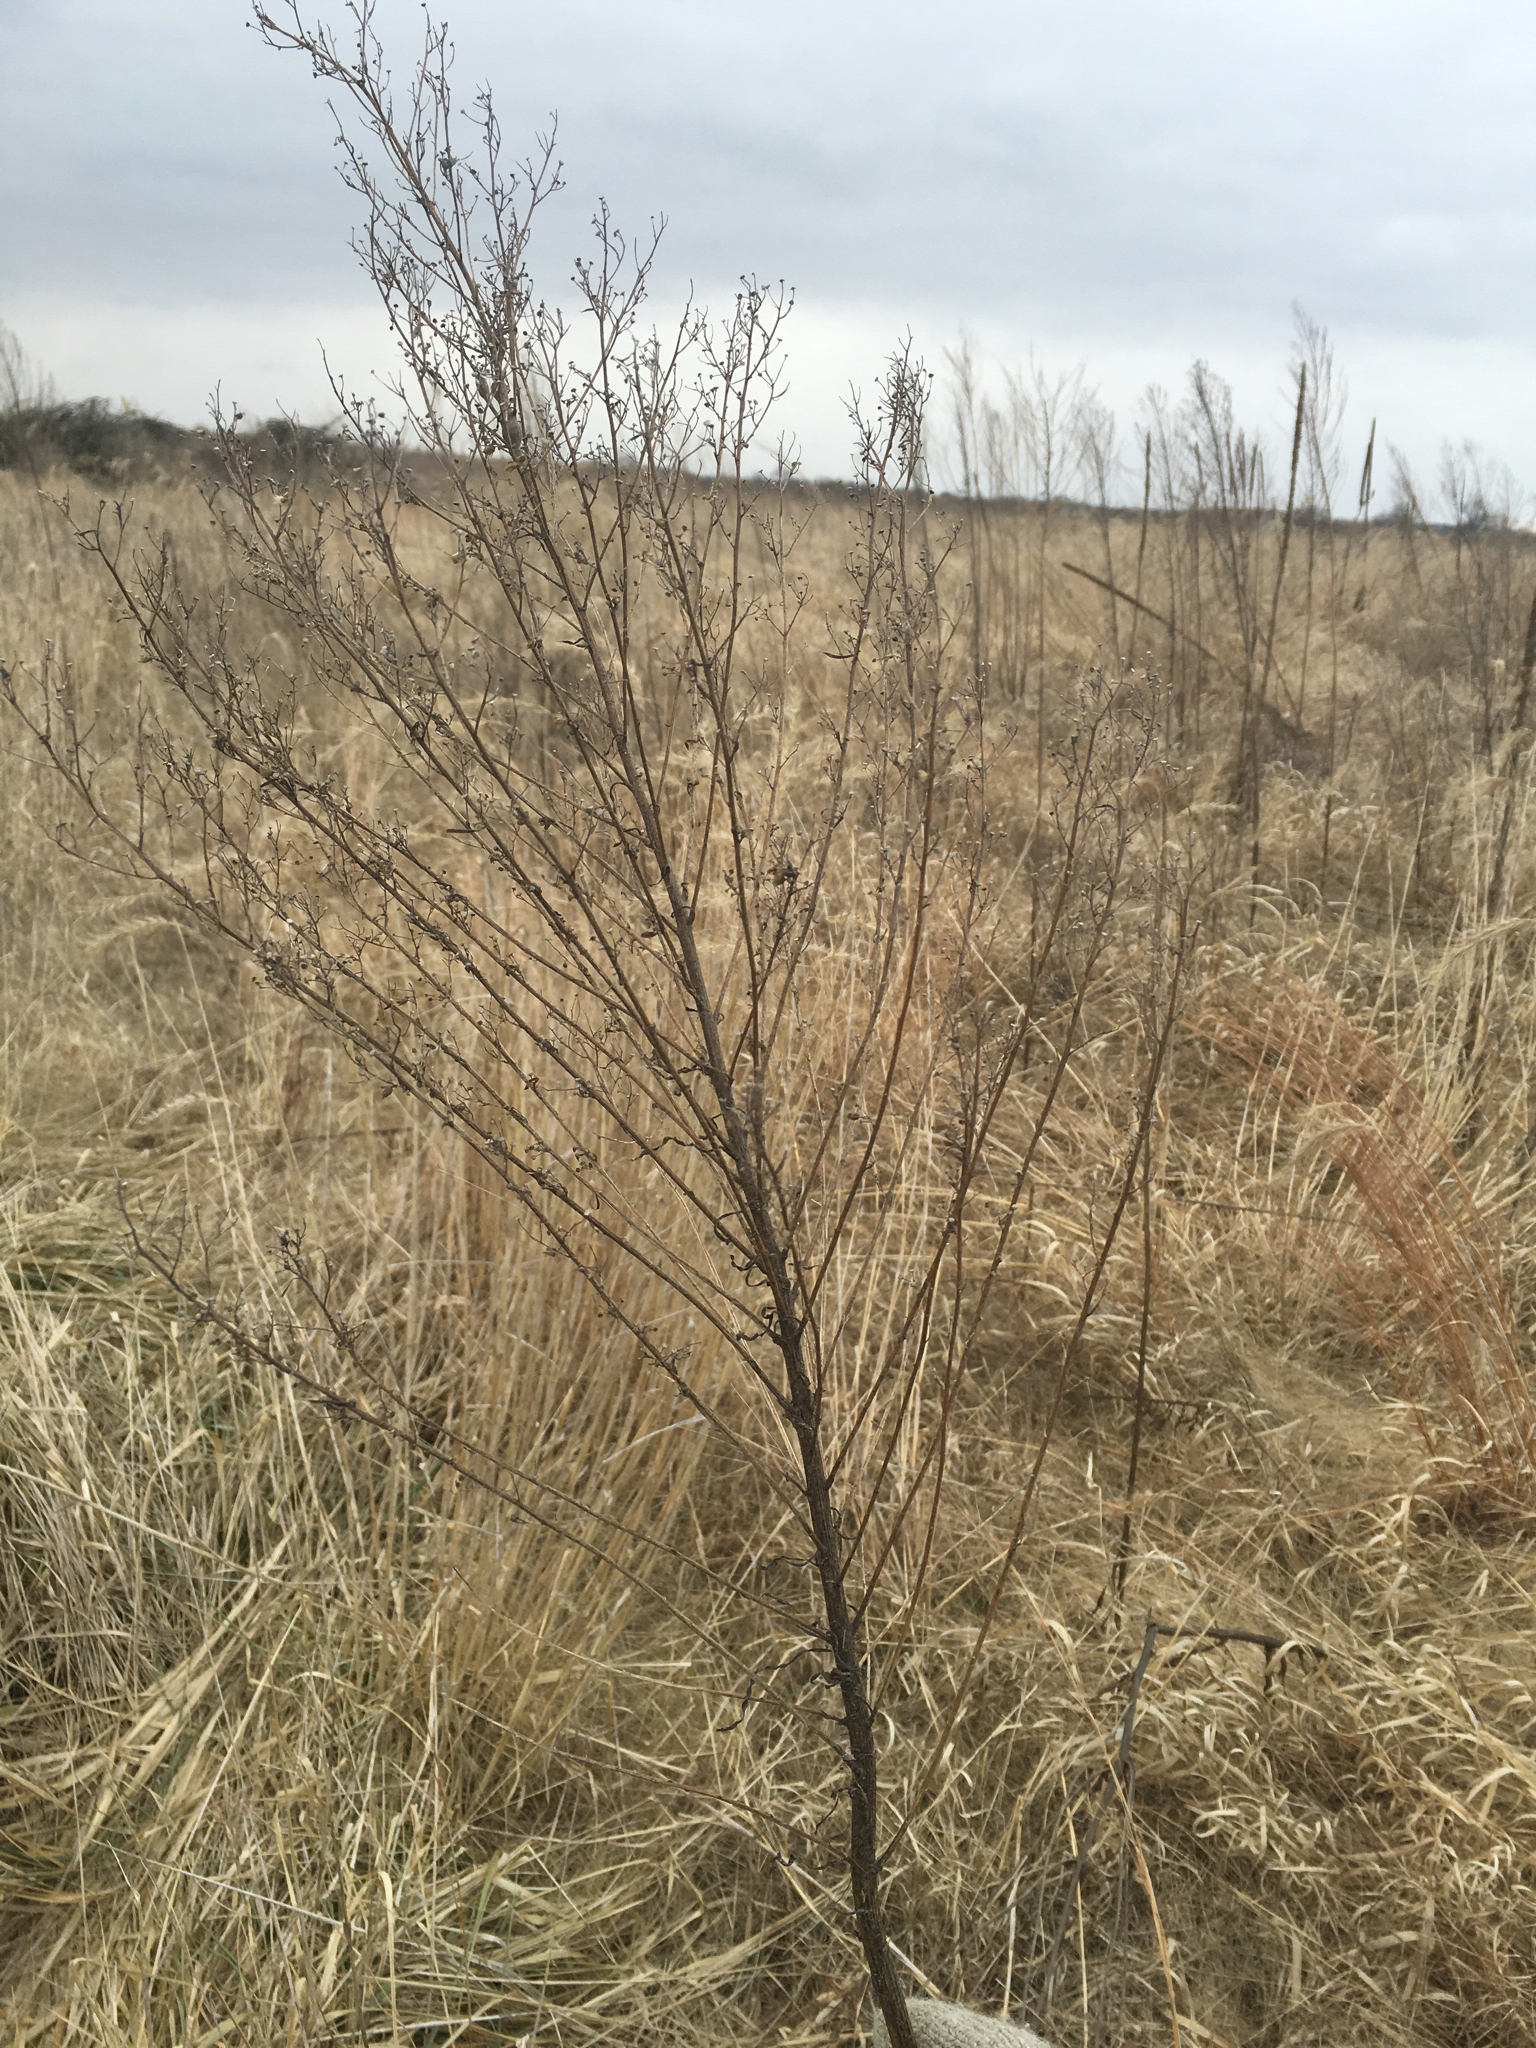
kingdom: Plantae
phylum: Tracheophyta
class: Magnoliopsida
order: Asterales
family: Asteraceae
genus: Erigeron
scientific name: Erigeron canadensis
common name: Canadian fleabane
